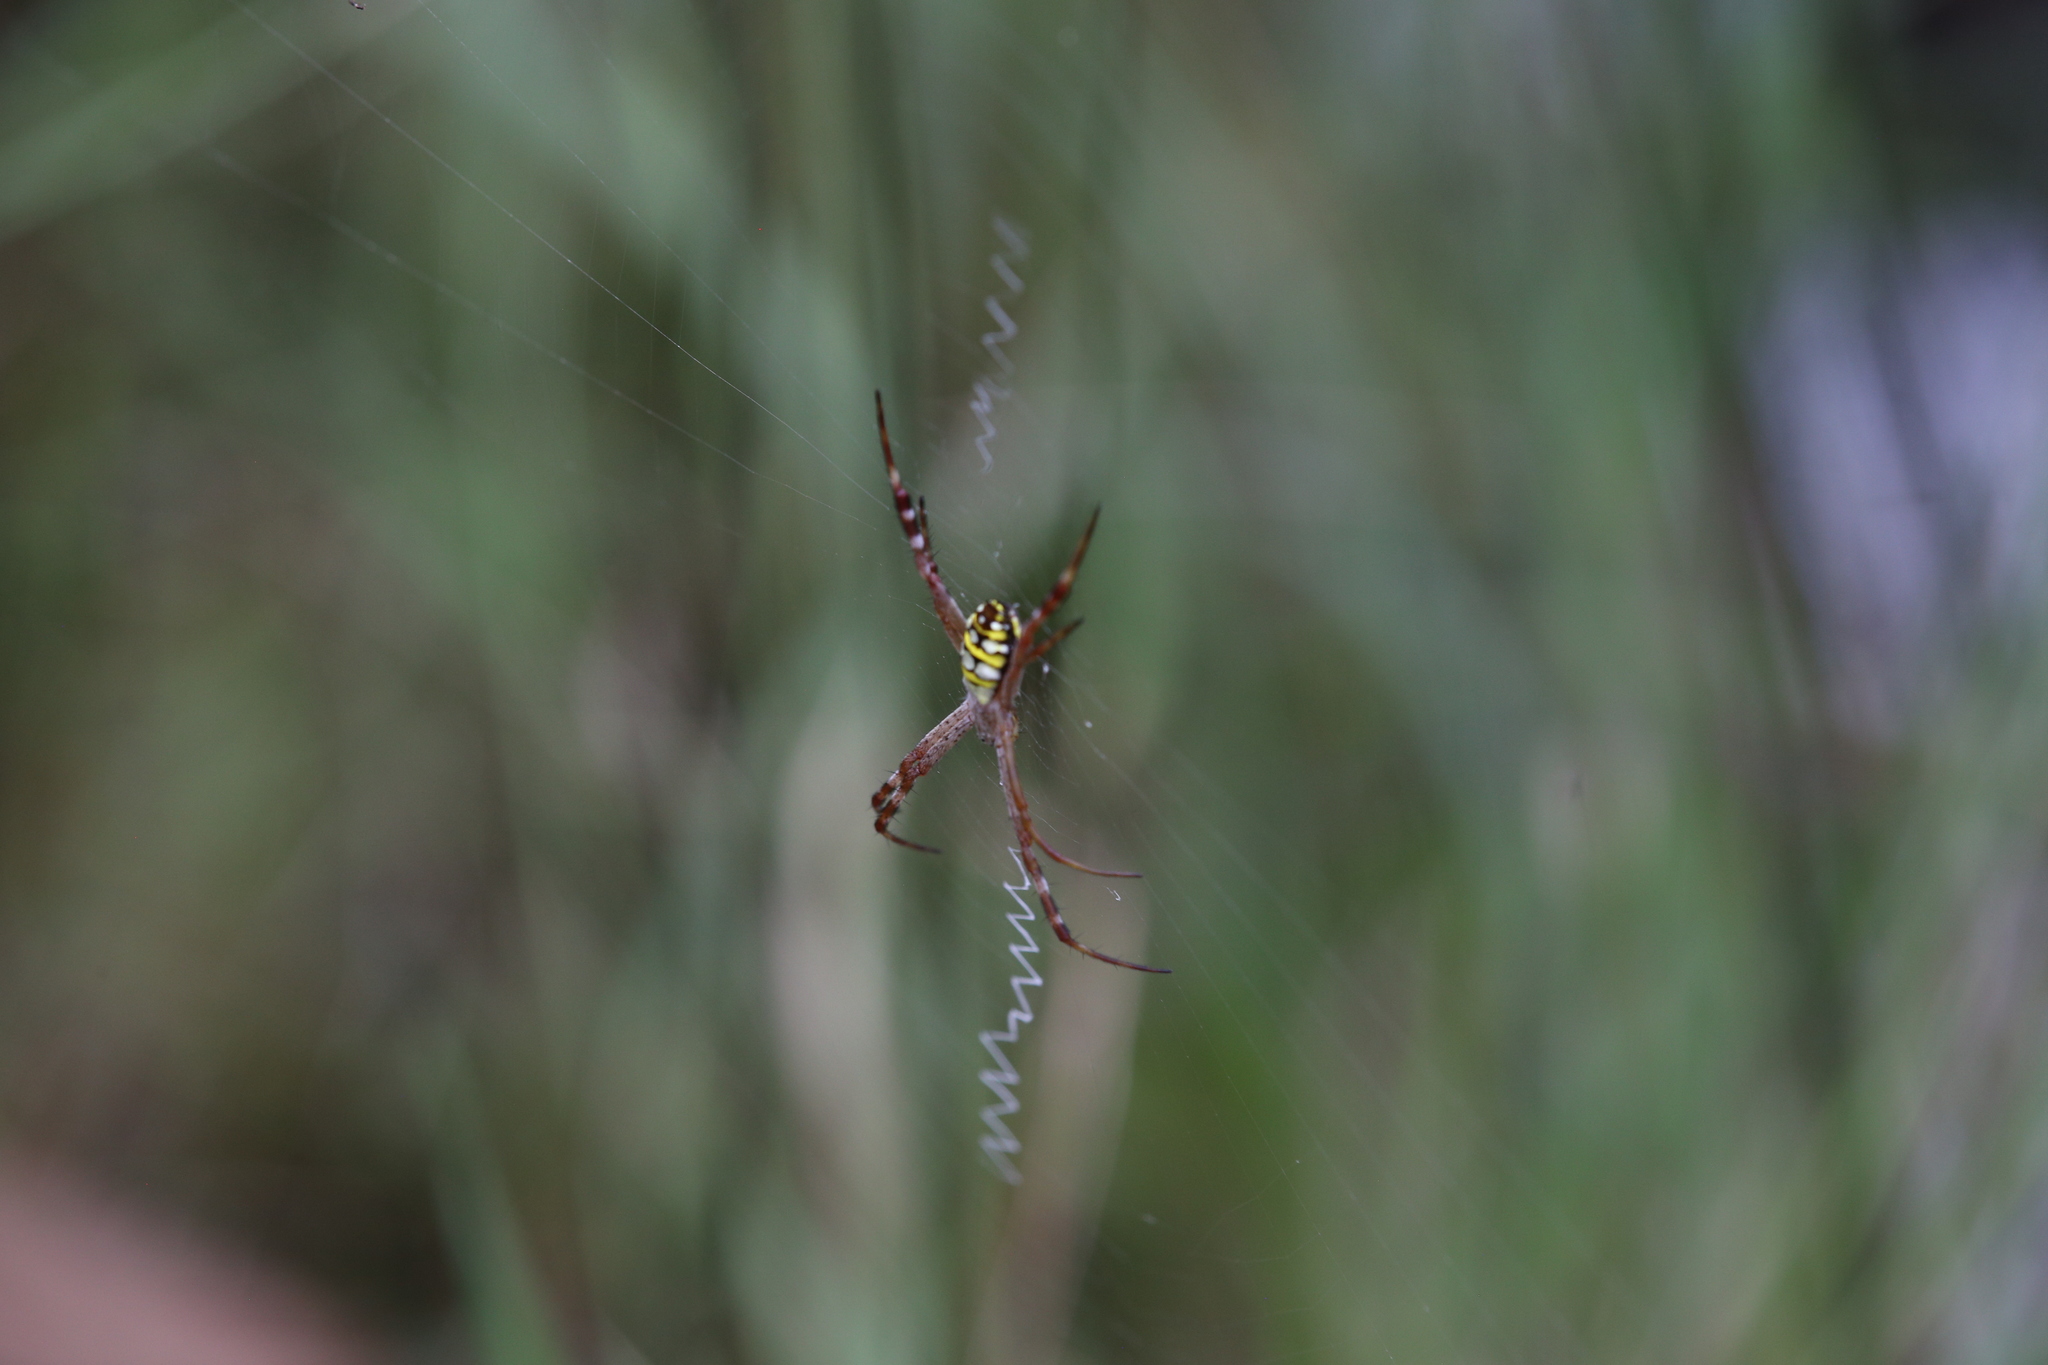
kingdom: Animalia
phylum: Arthropoda
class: Arachnida
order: Araneae
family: Araneidae
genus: Argiope
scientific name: Argiope picta
